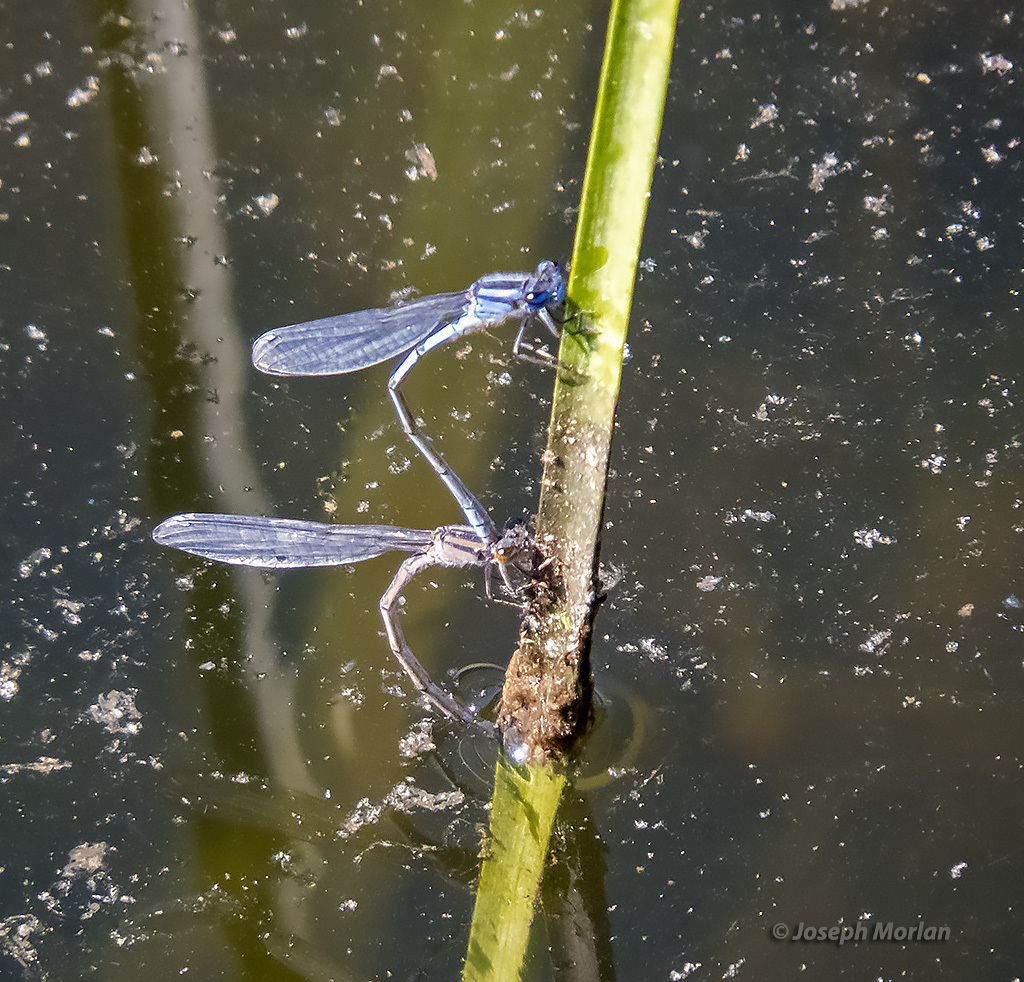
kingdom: Animalia
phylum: Arthropoda
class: Insecta
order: Odonata
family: Coenagrionidae
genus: Enallagma
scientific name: Enallagma civile
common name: Damselfly
